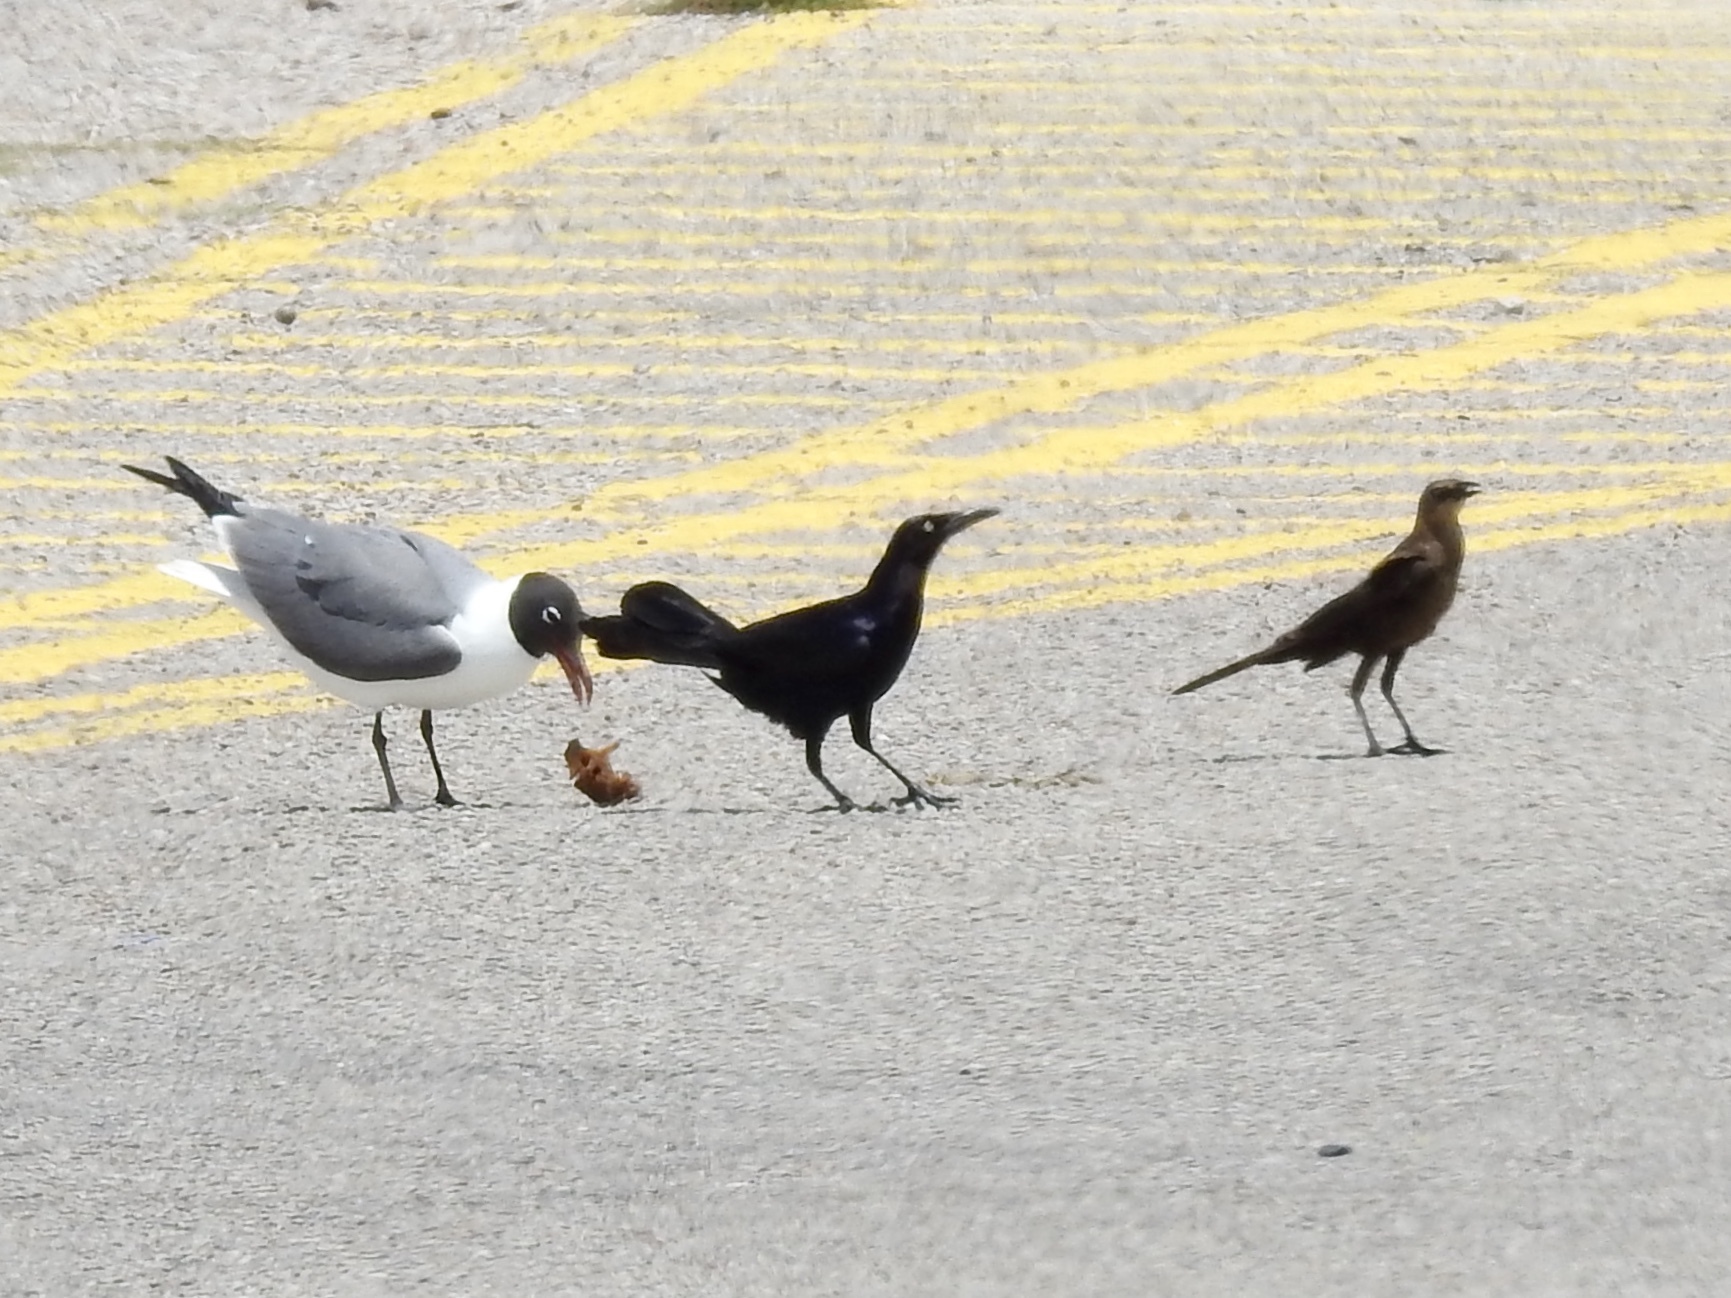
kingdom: Animalia
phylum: Chordata
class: Aves
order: Passeriformes
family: Icteridae
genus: Quiscalus
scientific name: Quiscalus mexicanus
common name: Great-tailed grackle
